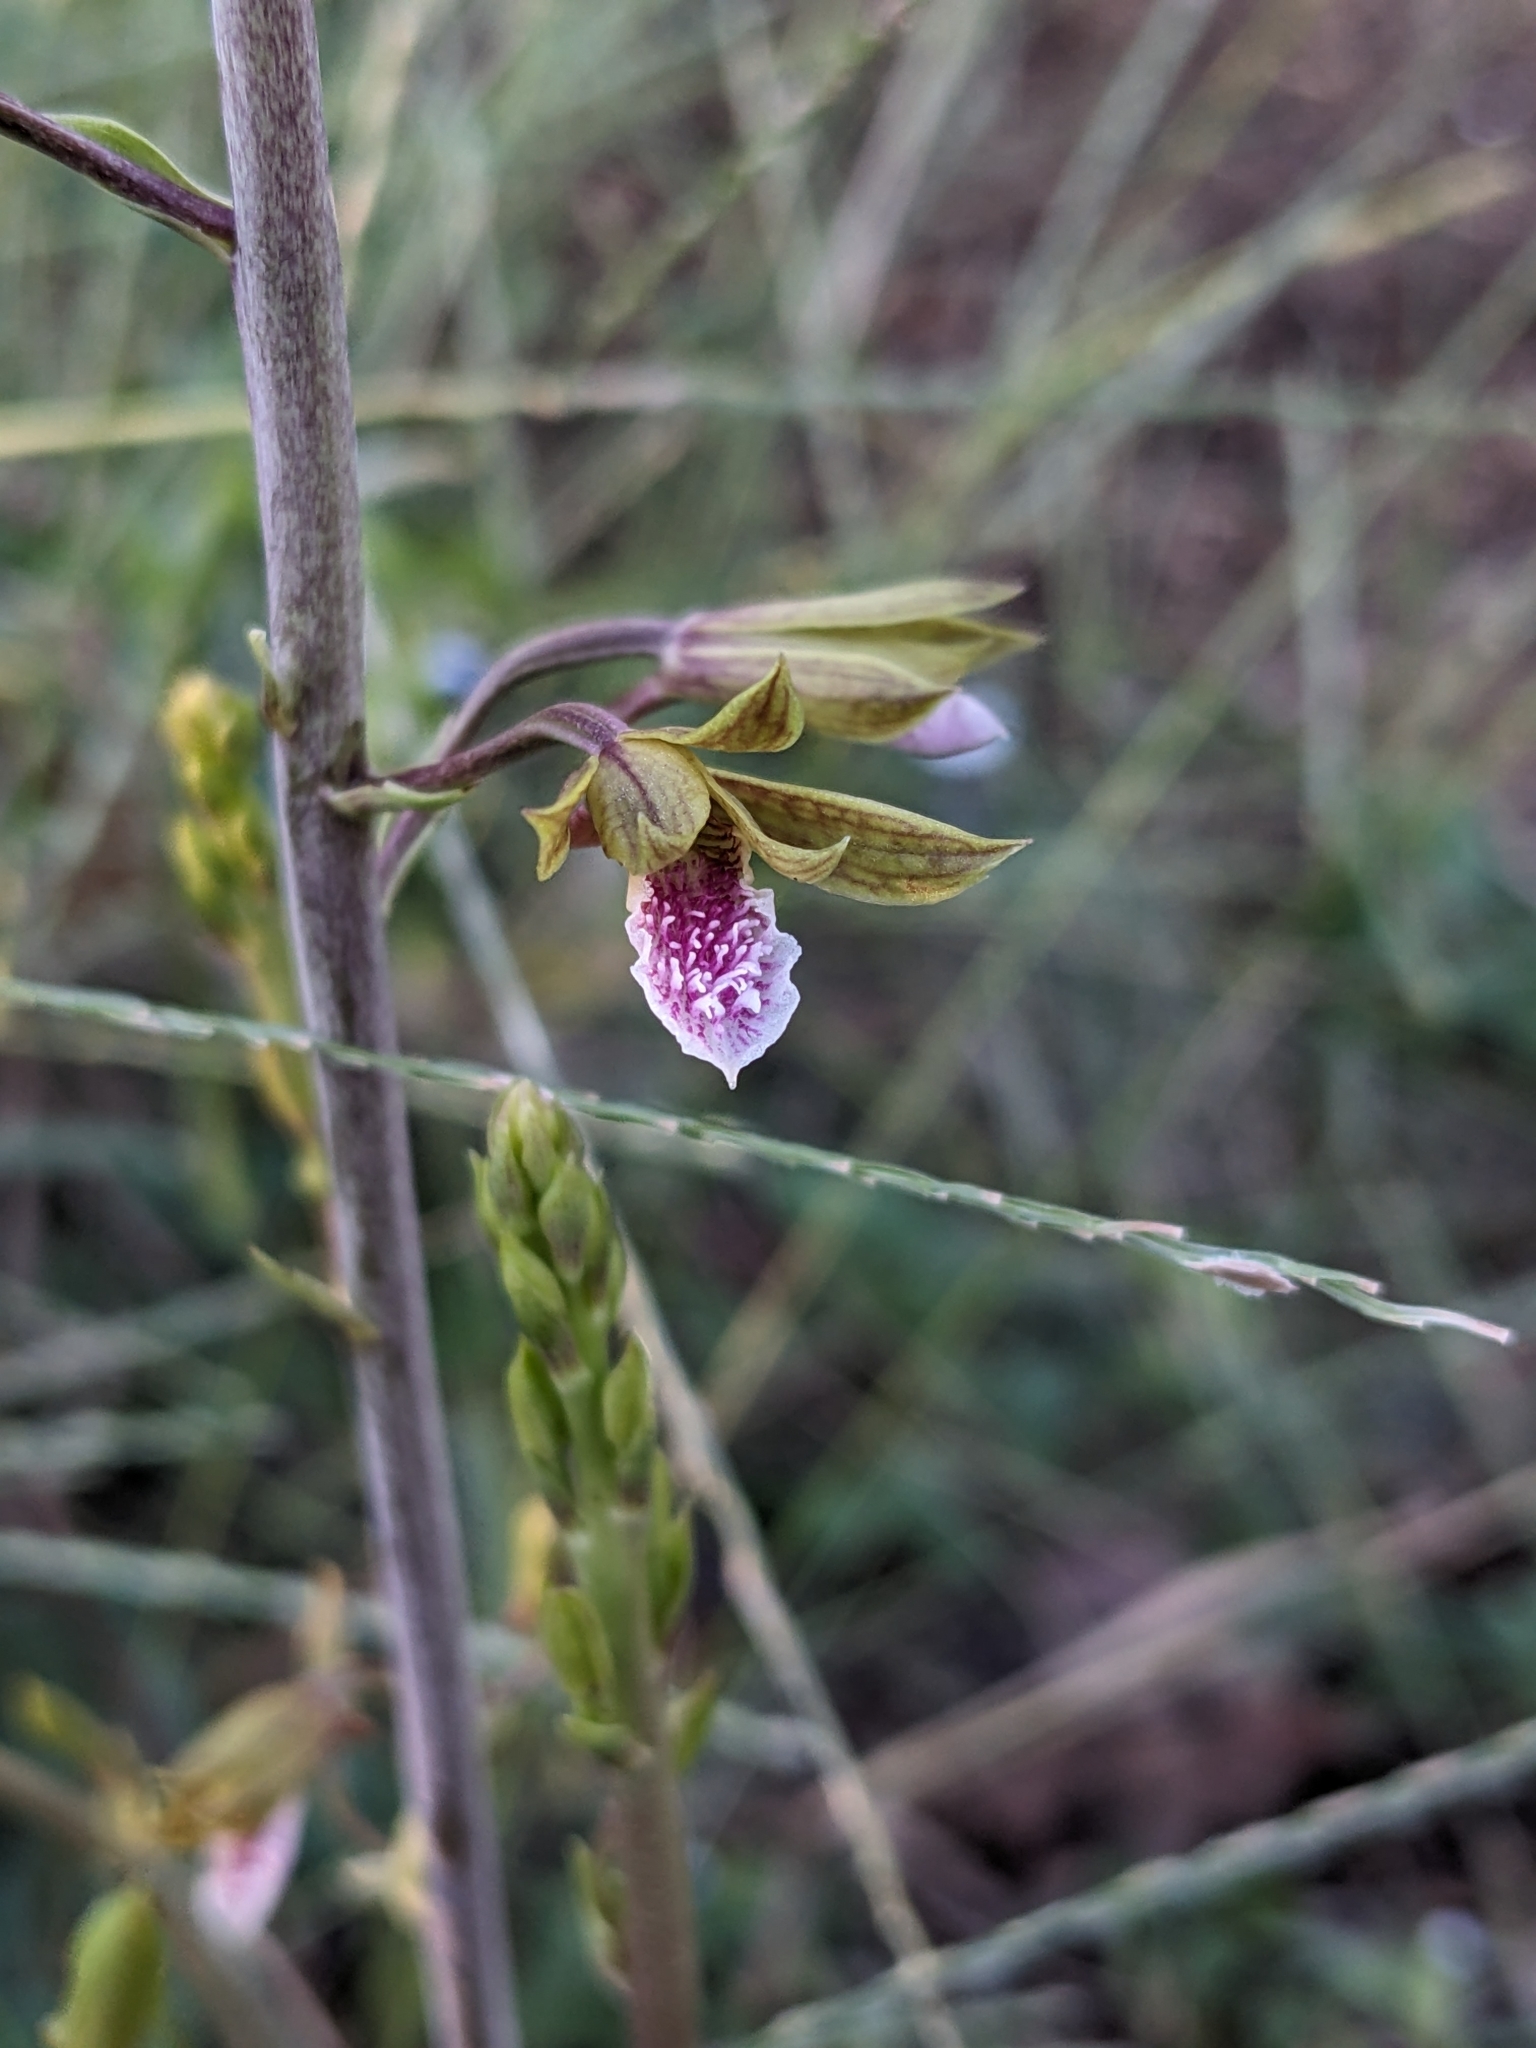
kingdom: Plantae
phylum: Tracheophyta
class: Liliopsida
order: Asparagales
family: Orchidaceae
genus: Eulophia
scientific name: Eulophia graminea
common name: Orchid
